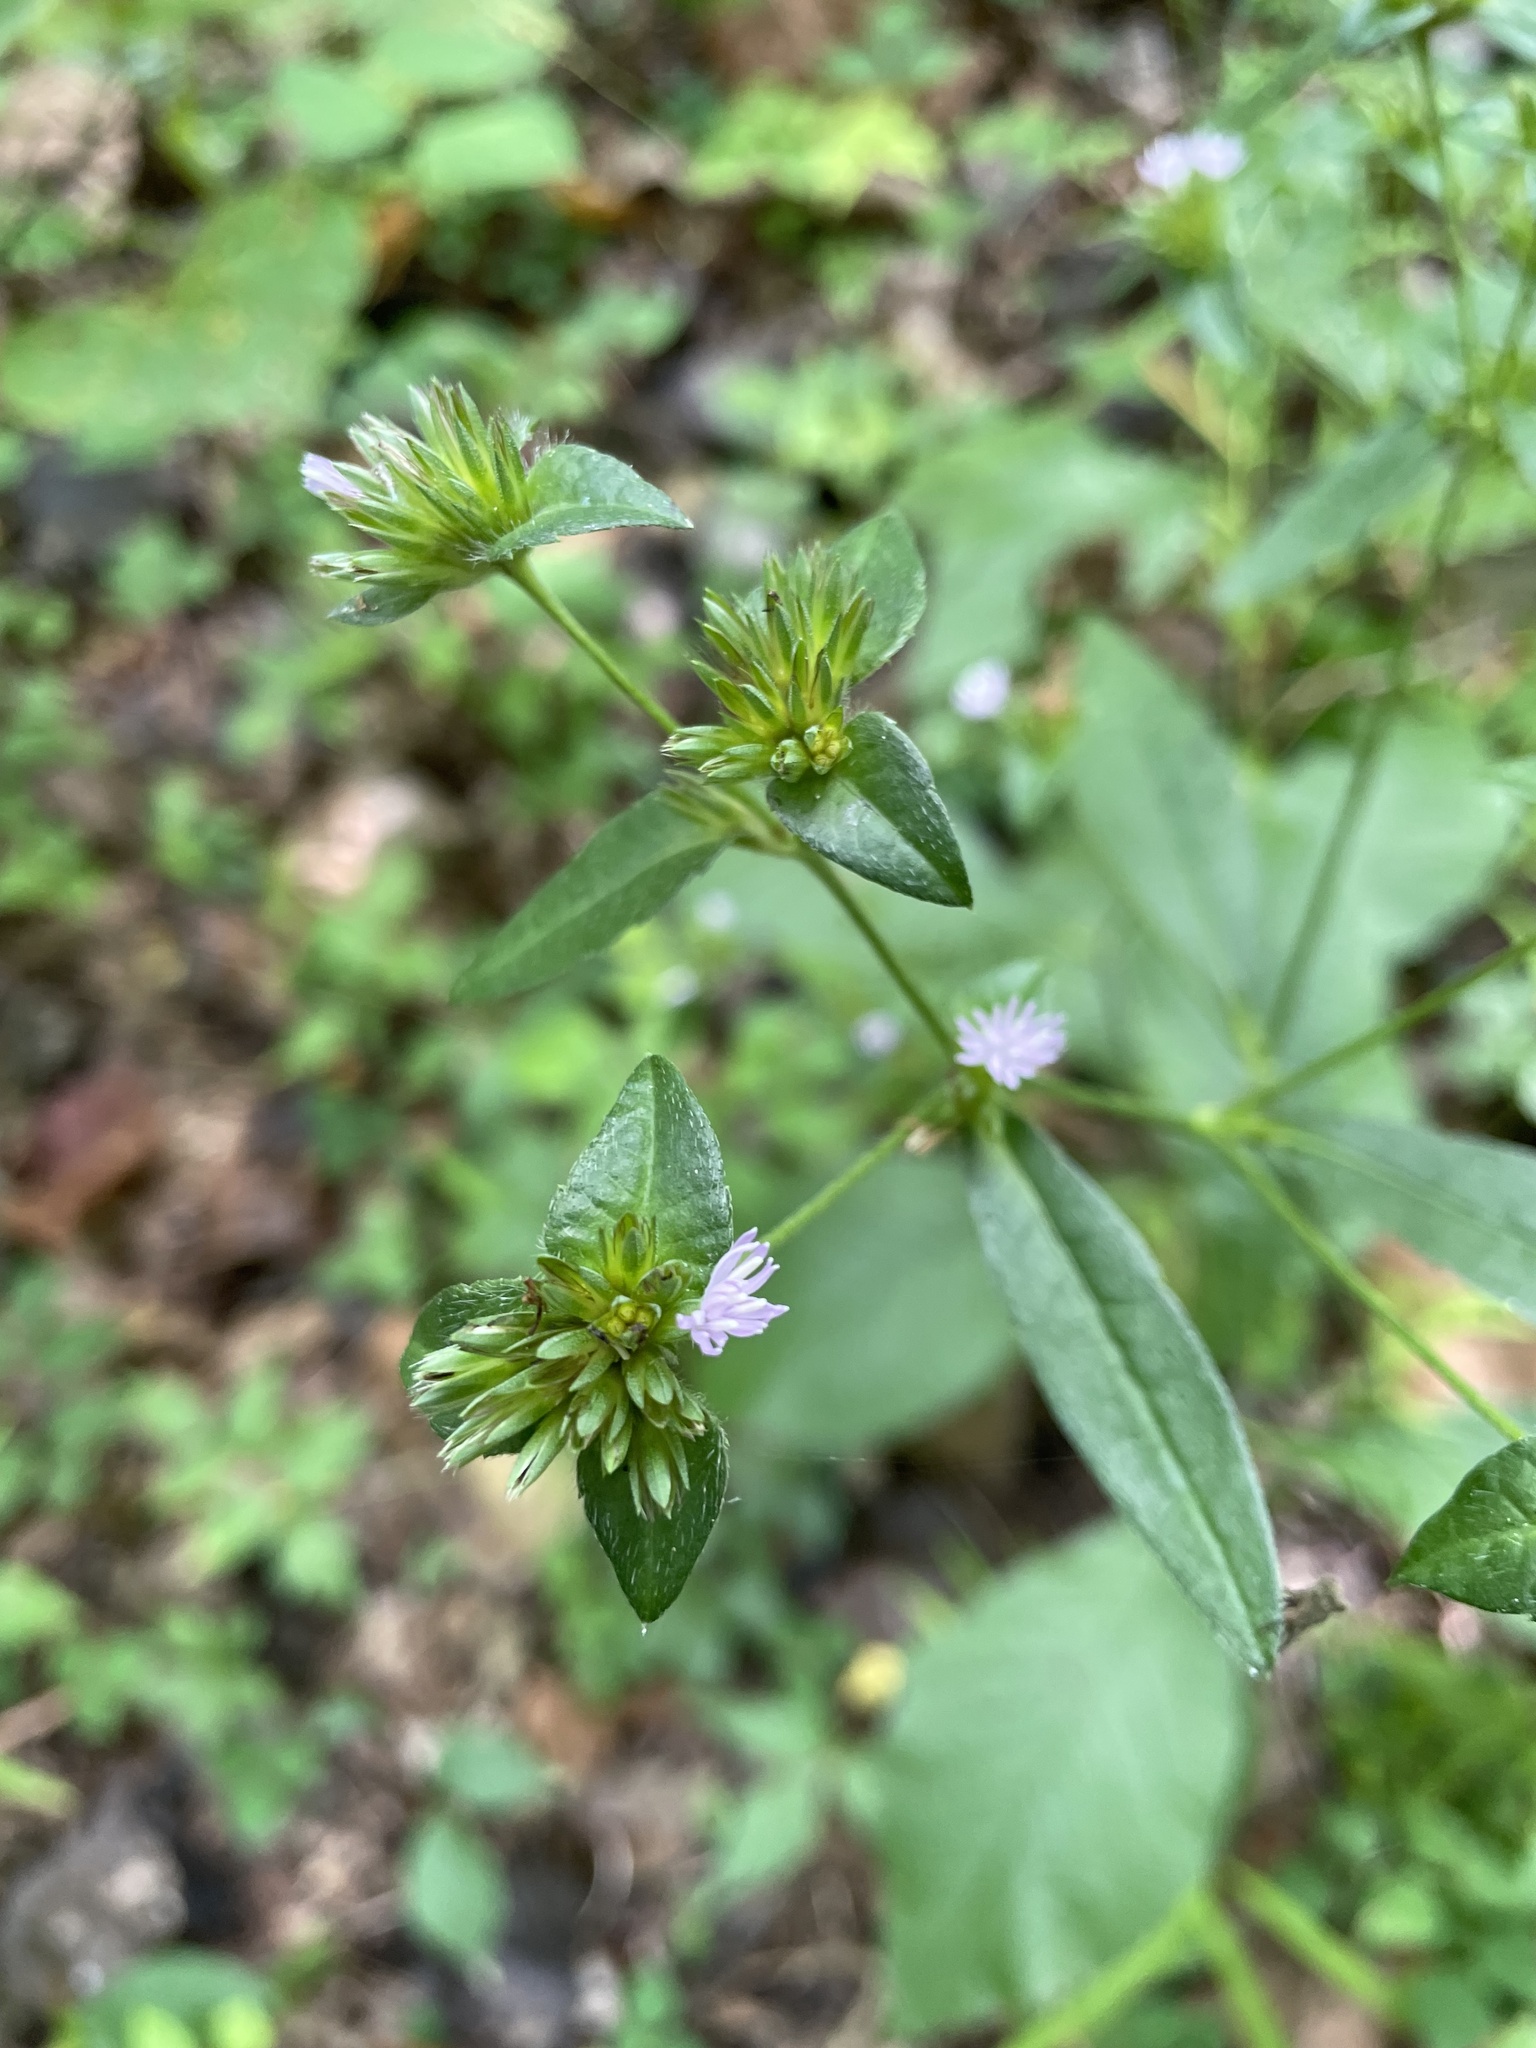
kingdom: Plantae
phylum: Tracheophyta
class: Magnoliopsida
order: Asterales
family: Asteraceae
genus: Elephantopus
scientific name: Elephantopus carolinianus
